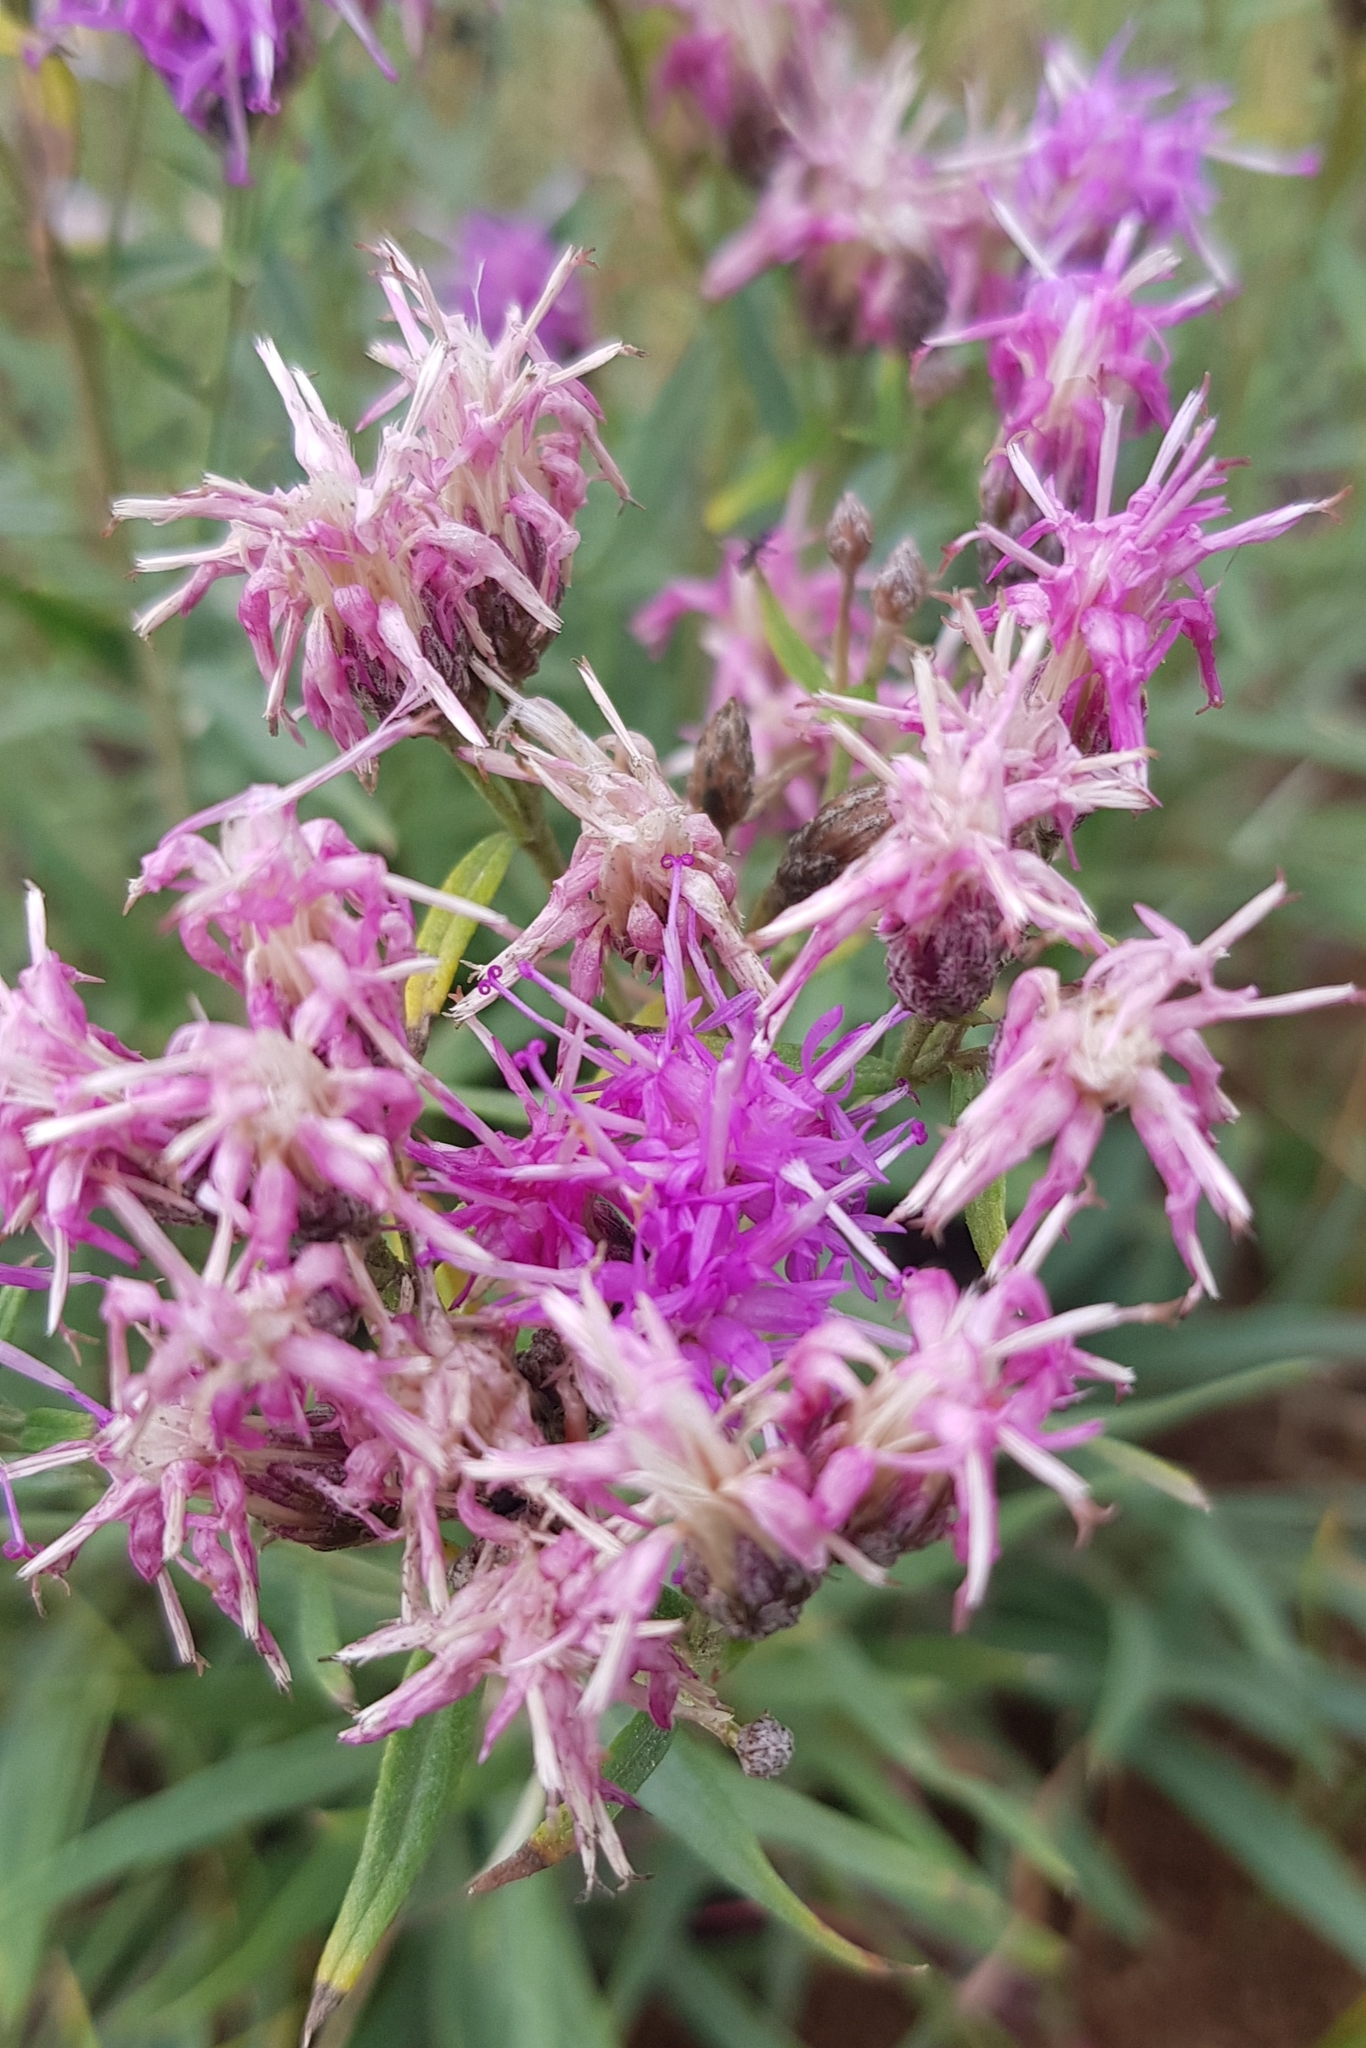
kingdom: Plantae
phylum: Tracheophyta
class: Magnoliopsida
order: Asterales
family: Asteraceae
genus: Saussurea
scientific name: Saussurea salicifolia
